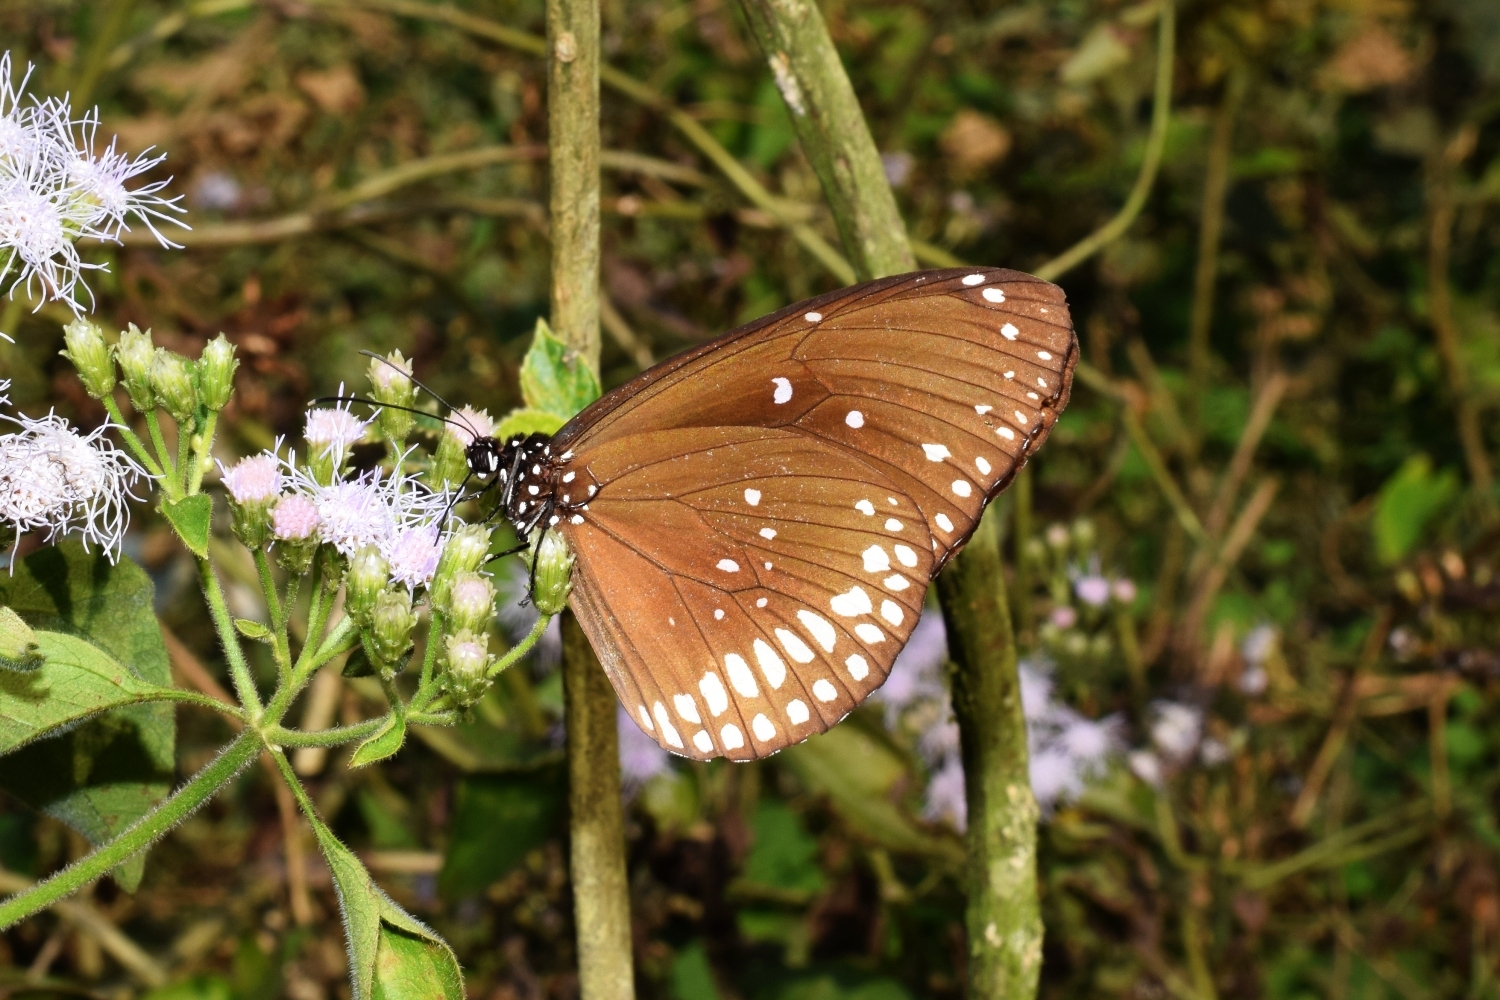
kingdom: Animalia
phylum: Arthropoda
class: Insecta
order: Lepidoptera
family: Nymphalidae
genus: Euploea
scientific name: Euploea core
